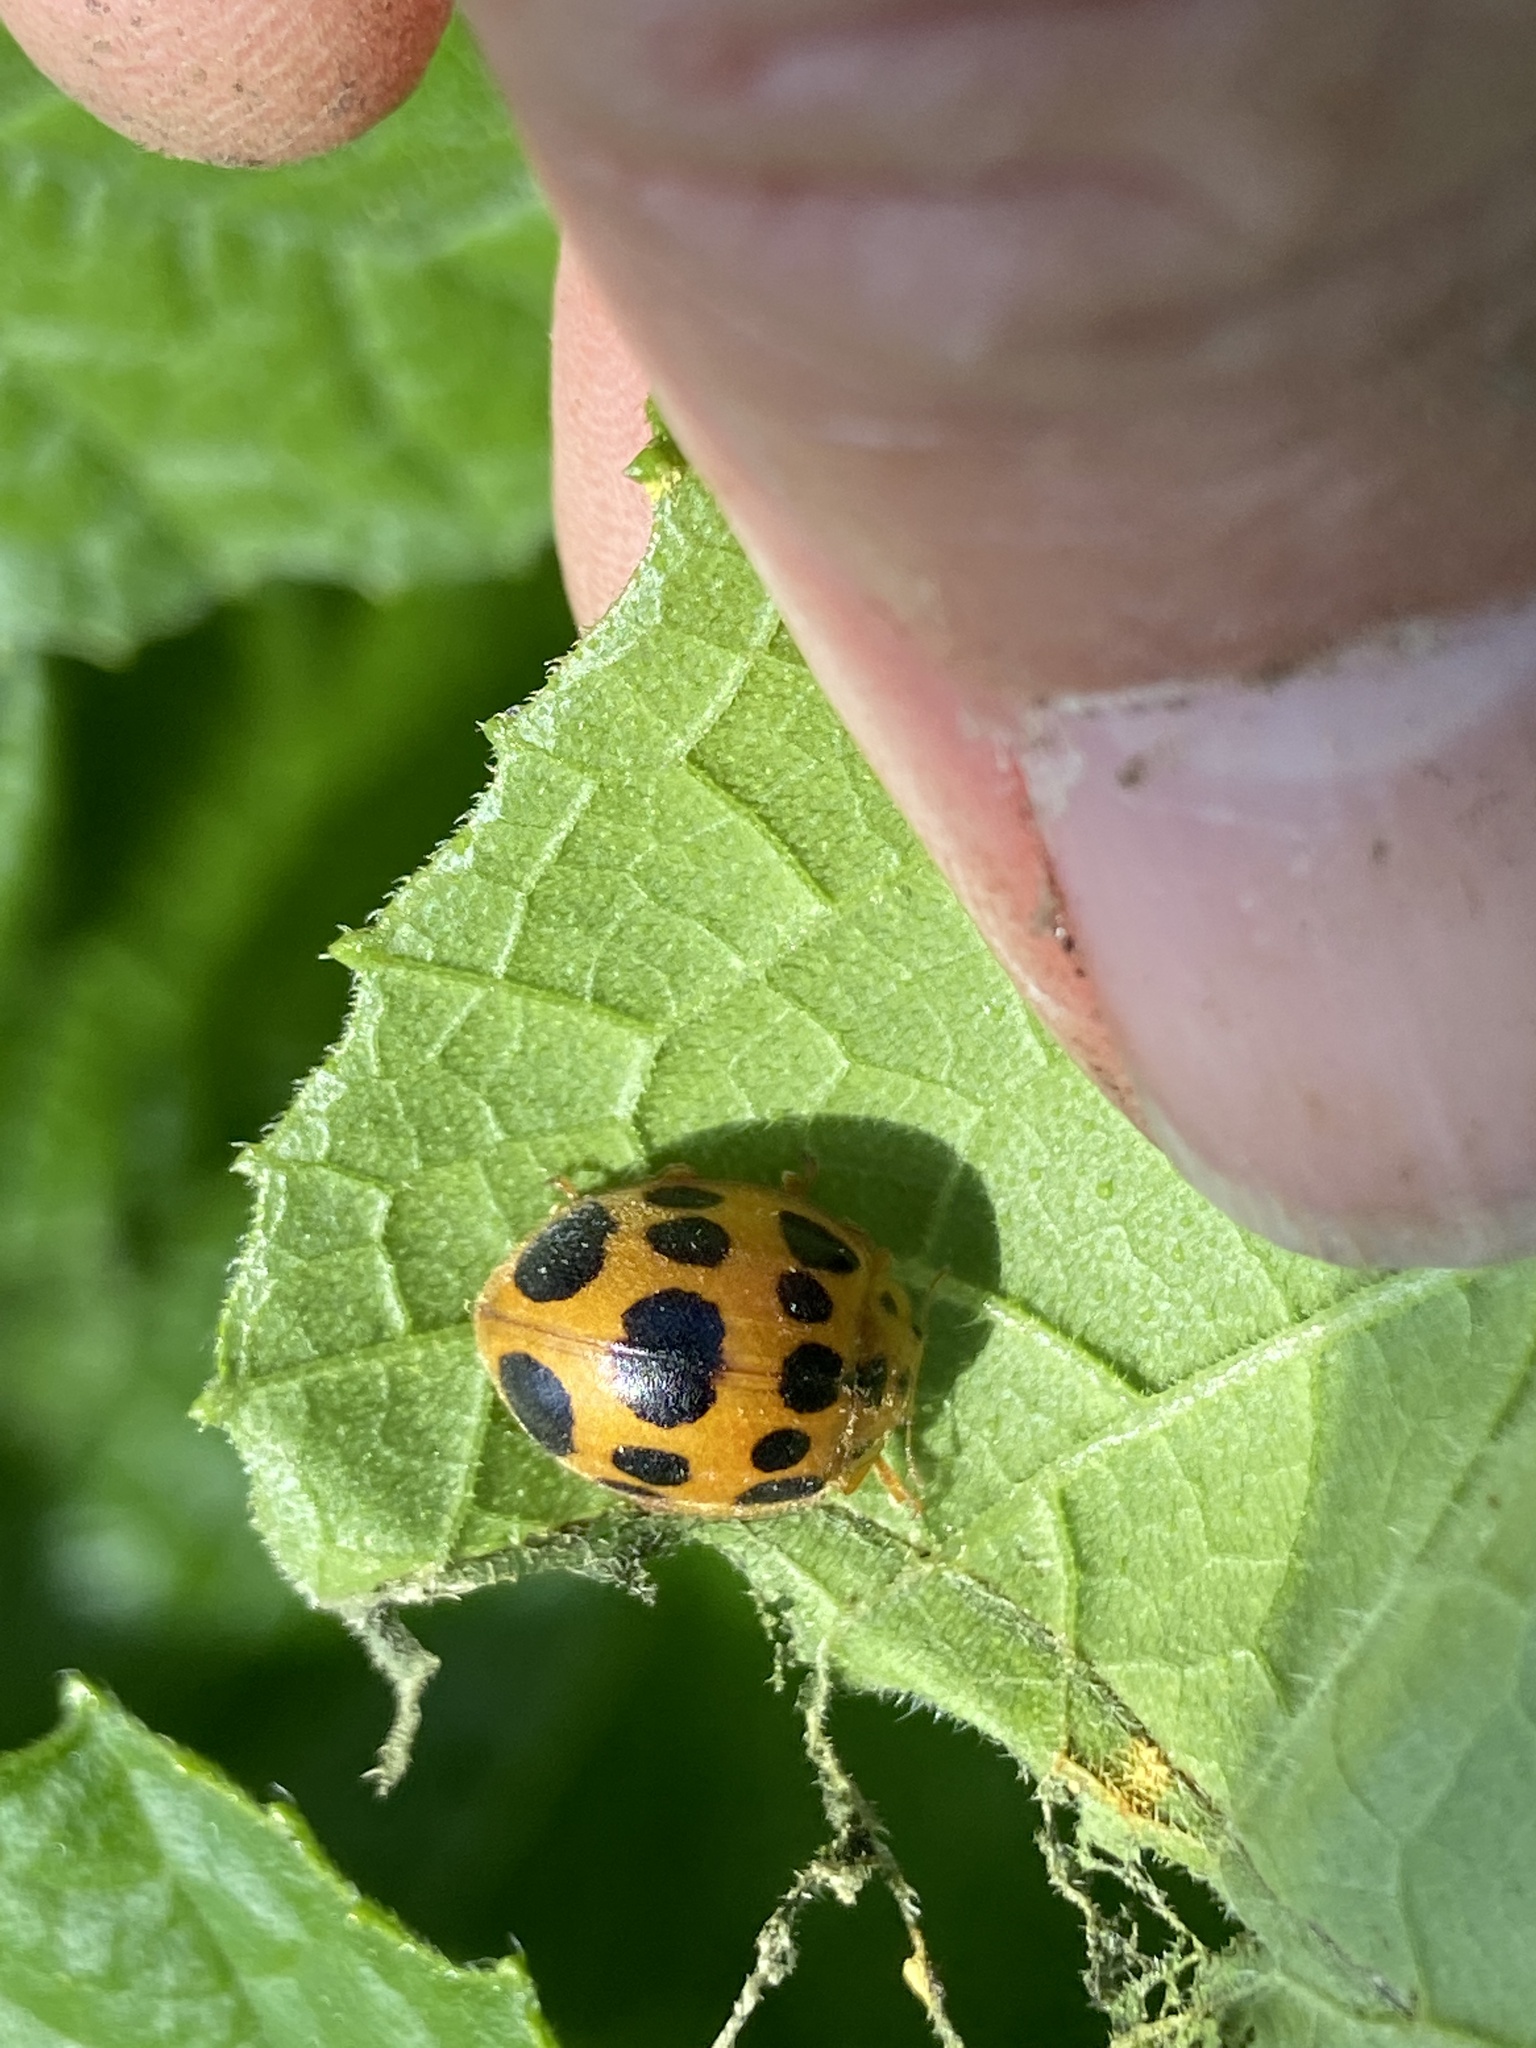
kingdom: Animalia
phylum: Arthropoda
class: Insecta
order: Coleoptera
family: Coccinellidae
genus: Epilachna
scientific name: Epilachna borealis
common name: Squash beetle
